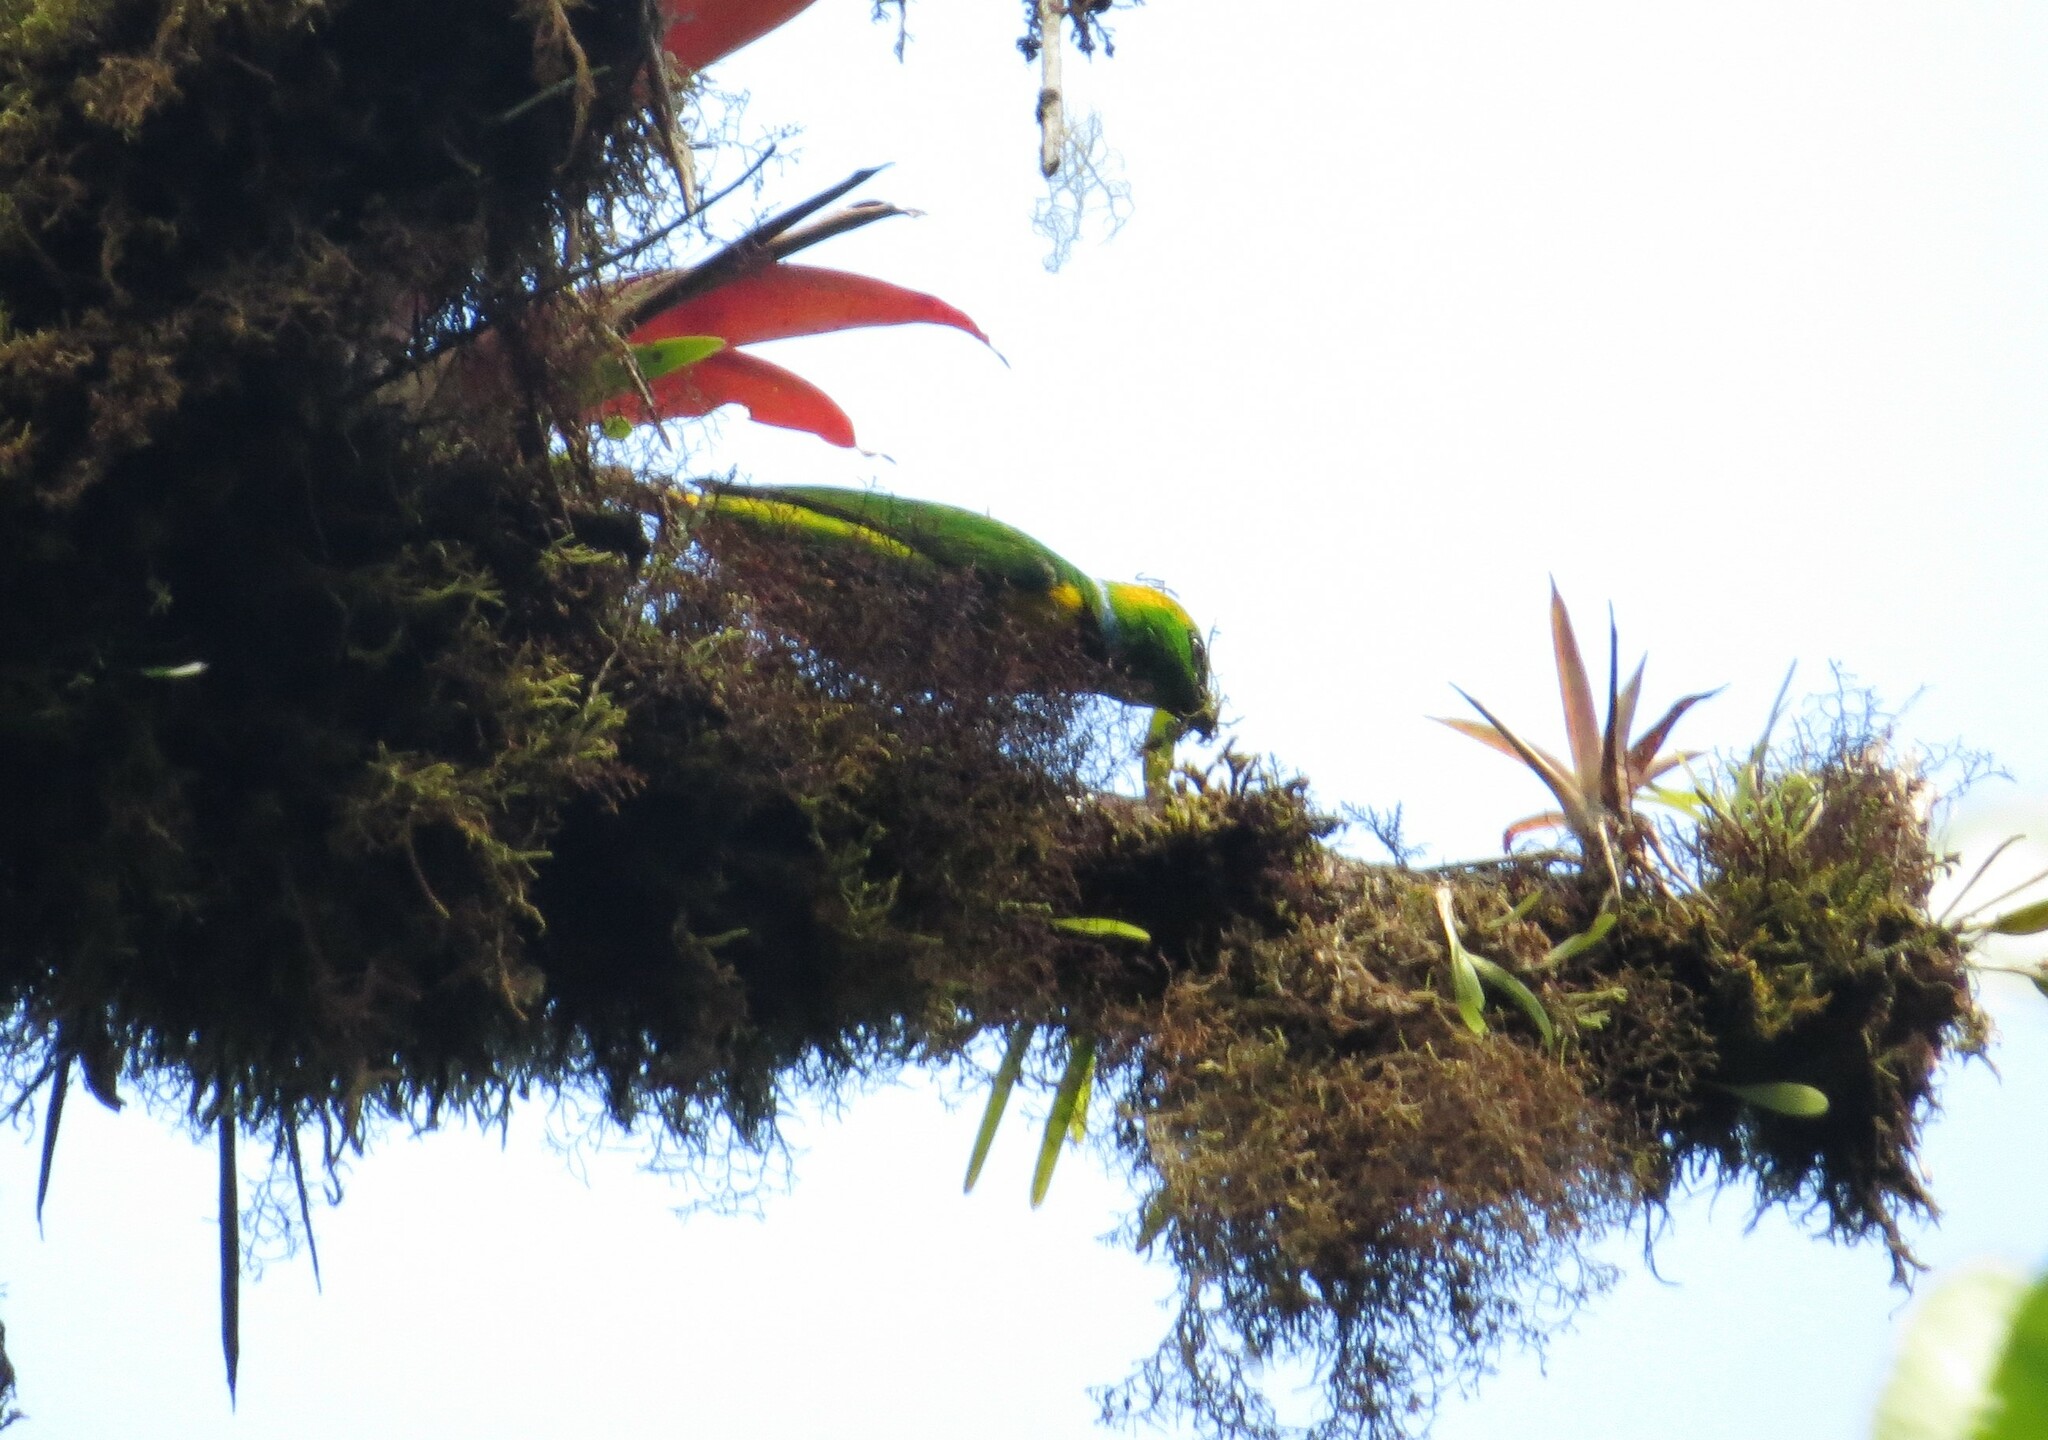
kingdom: Animalia
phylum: Chordata
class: Aves
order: Passeriformes
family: Fringillidae
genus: Chlorophonia
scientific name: Chlorophonia callophrys
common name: Golden-browed chlorophonia
